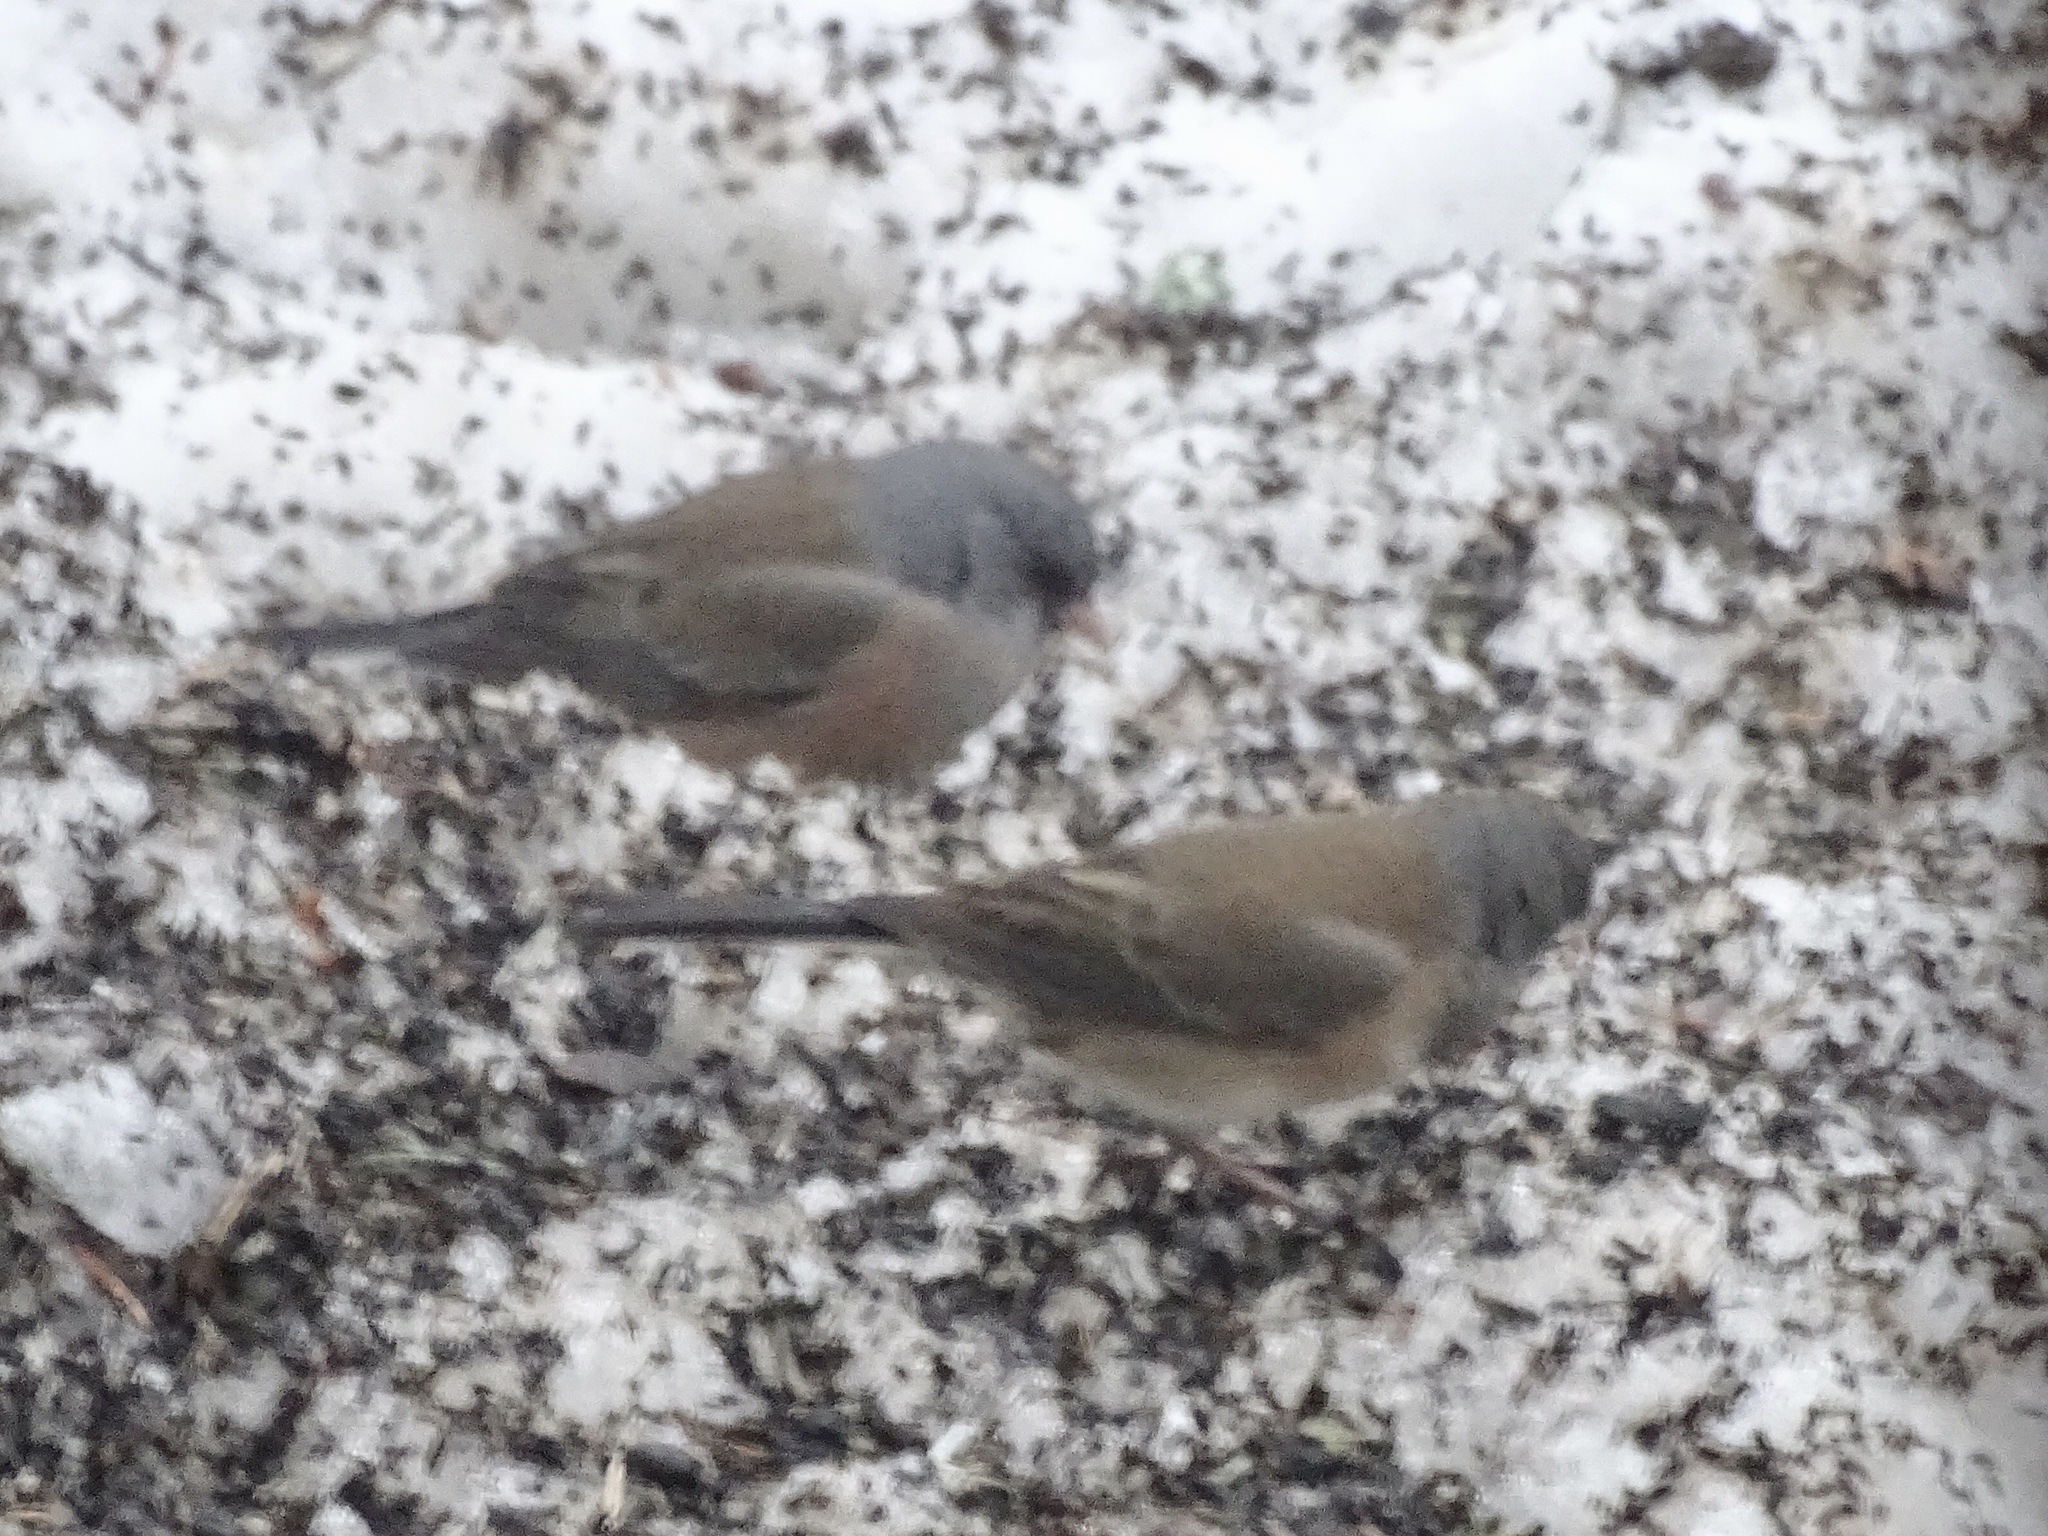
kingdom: Animalia
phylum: Chordata
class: Aves
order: Passeriformes
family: Passerellidae
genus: Junco
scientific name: Junco hyemalis
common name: Dark-eyed junco
